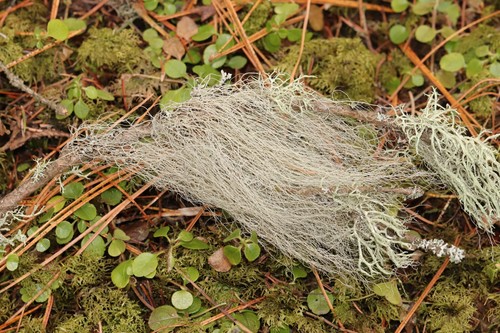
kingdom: Fungi
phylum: Ascomycota
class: Lecanoromycetes
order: Lecanorales
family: Parmeliaceae
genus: Bryoria
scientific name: Bryoria
